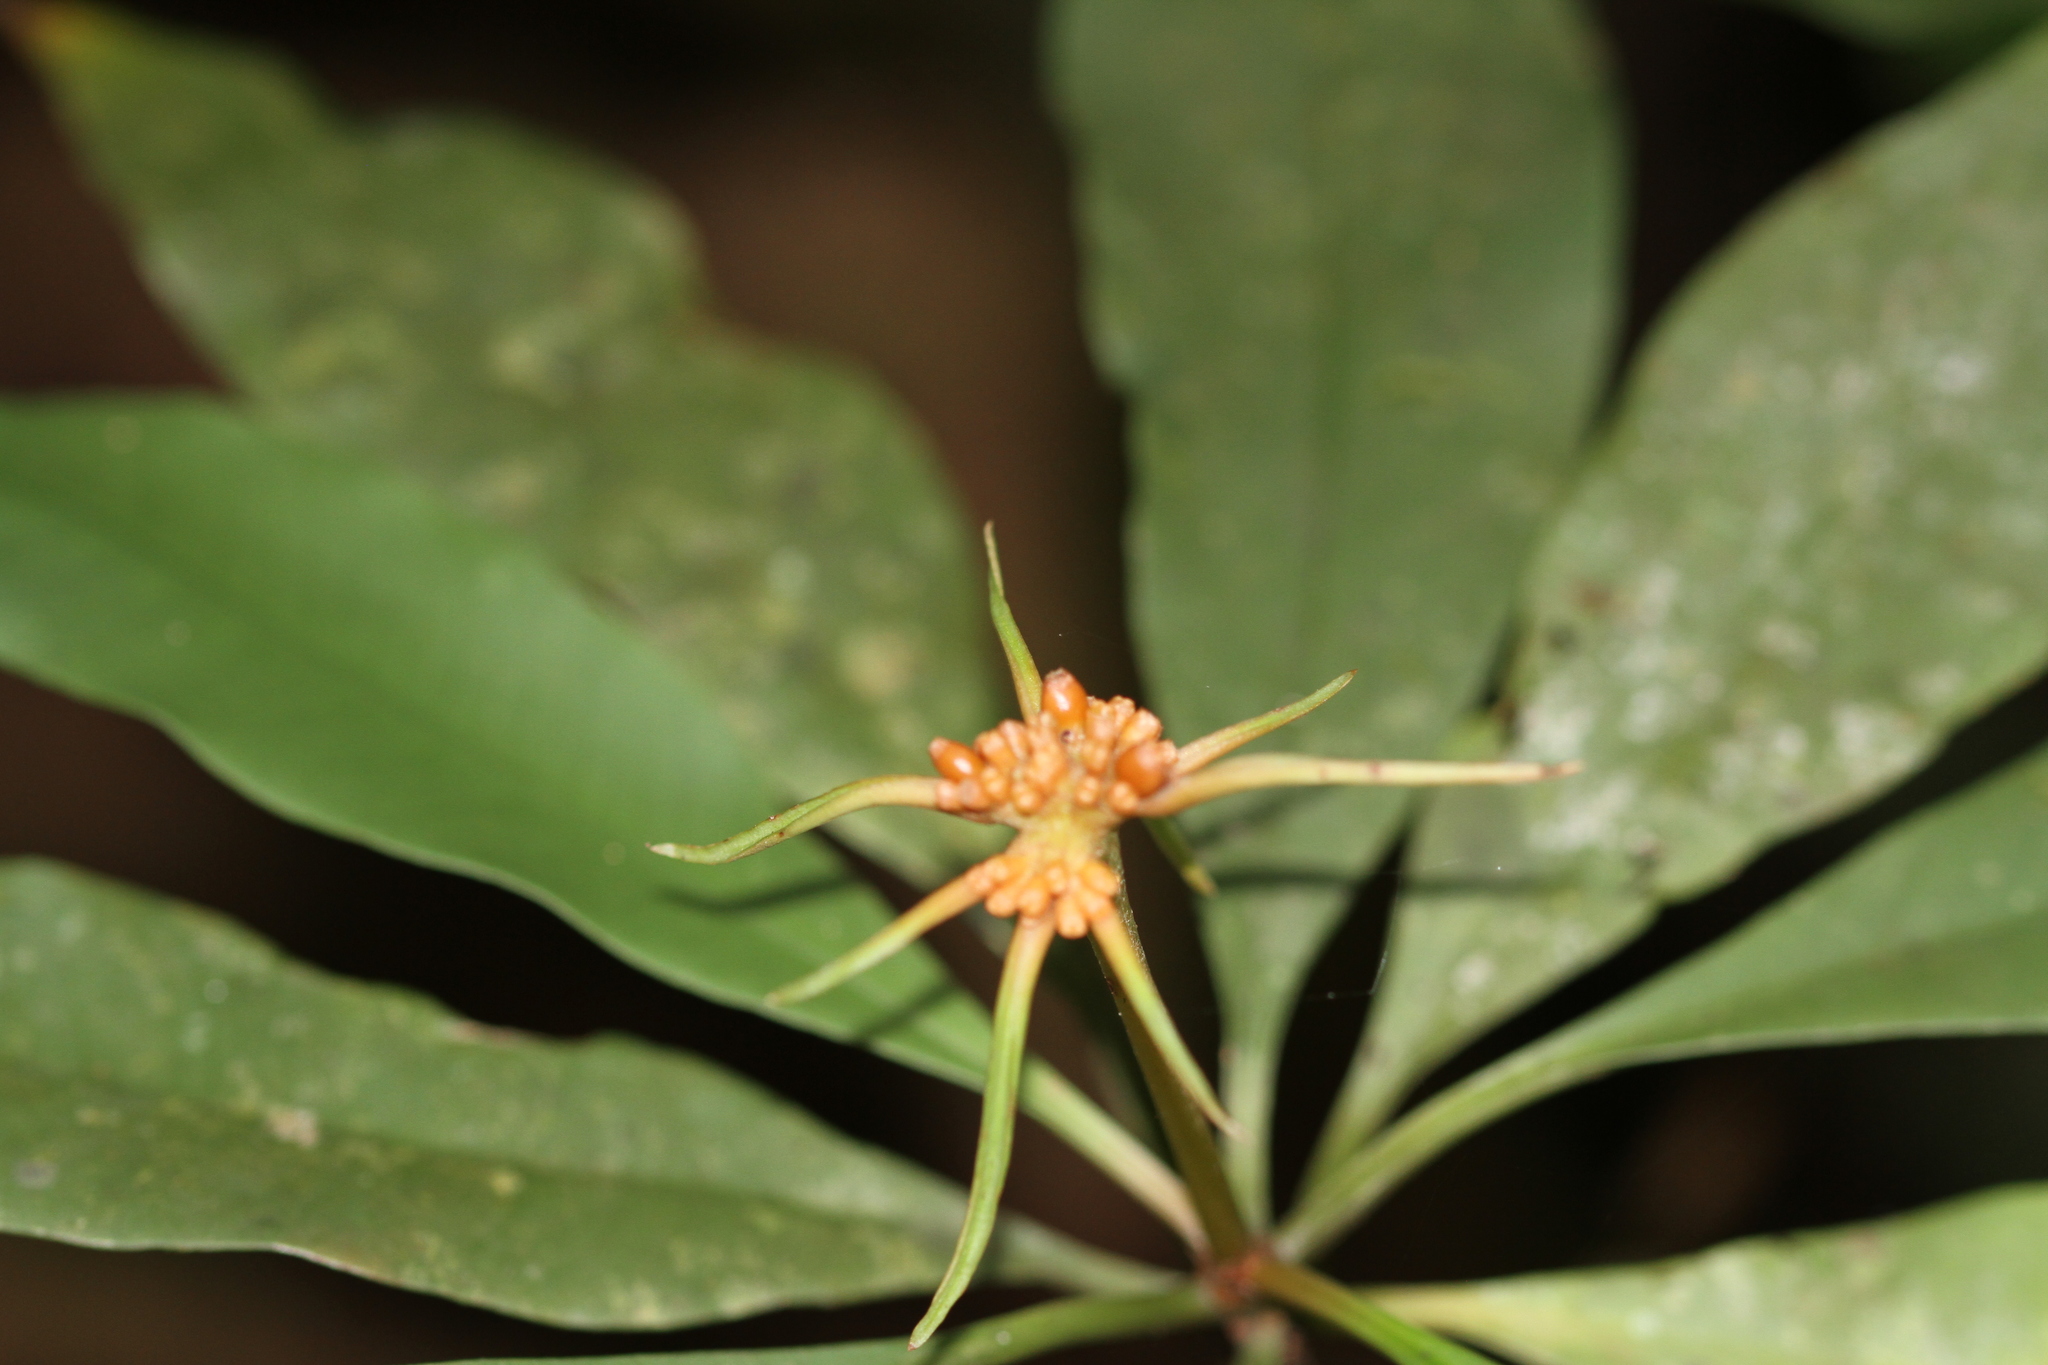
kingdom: Plantae
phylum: Tracheophyta
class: Magnoliopsida
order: Gentianales
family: Rubiaceae
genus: Carapichea
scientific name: Carapichea ligularis
